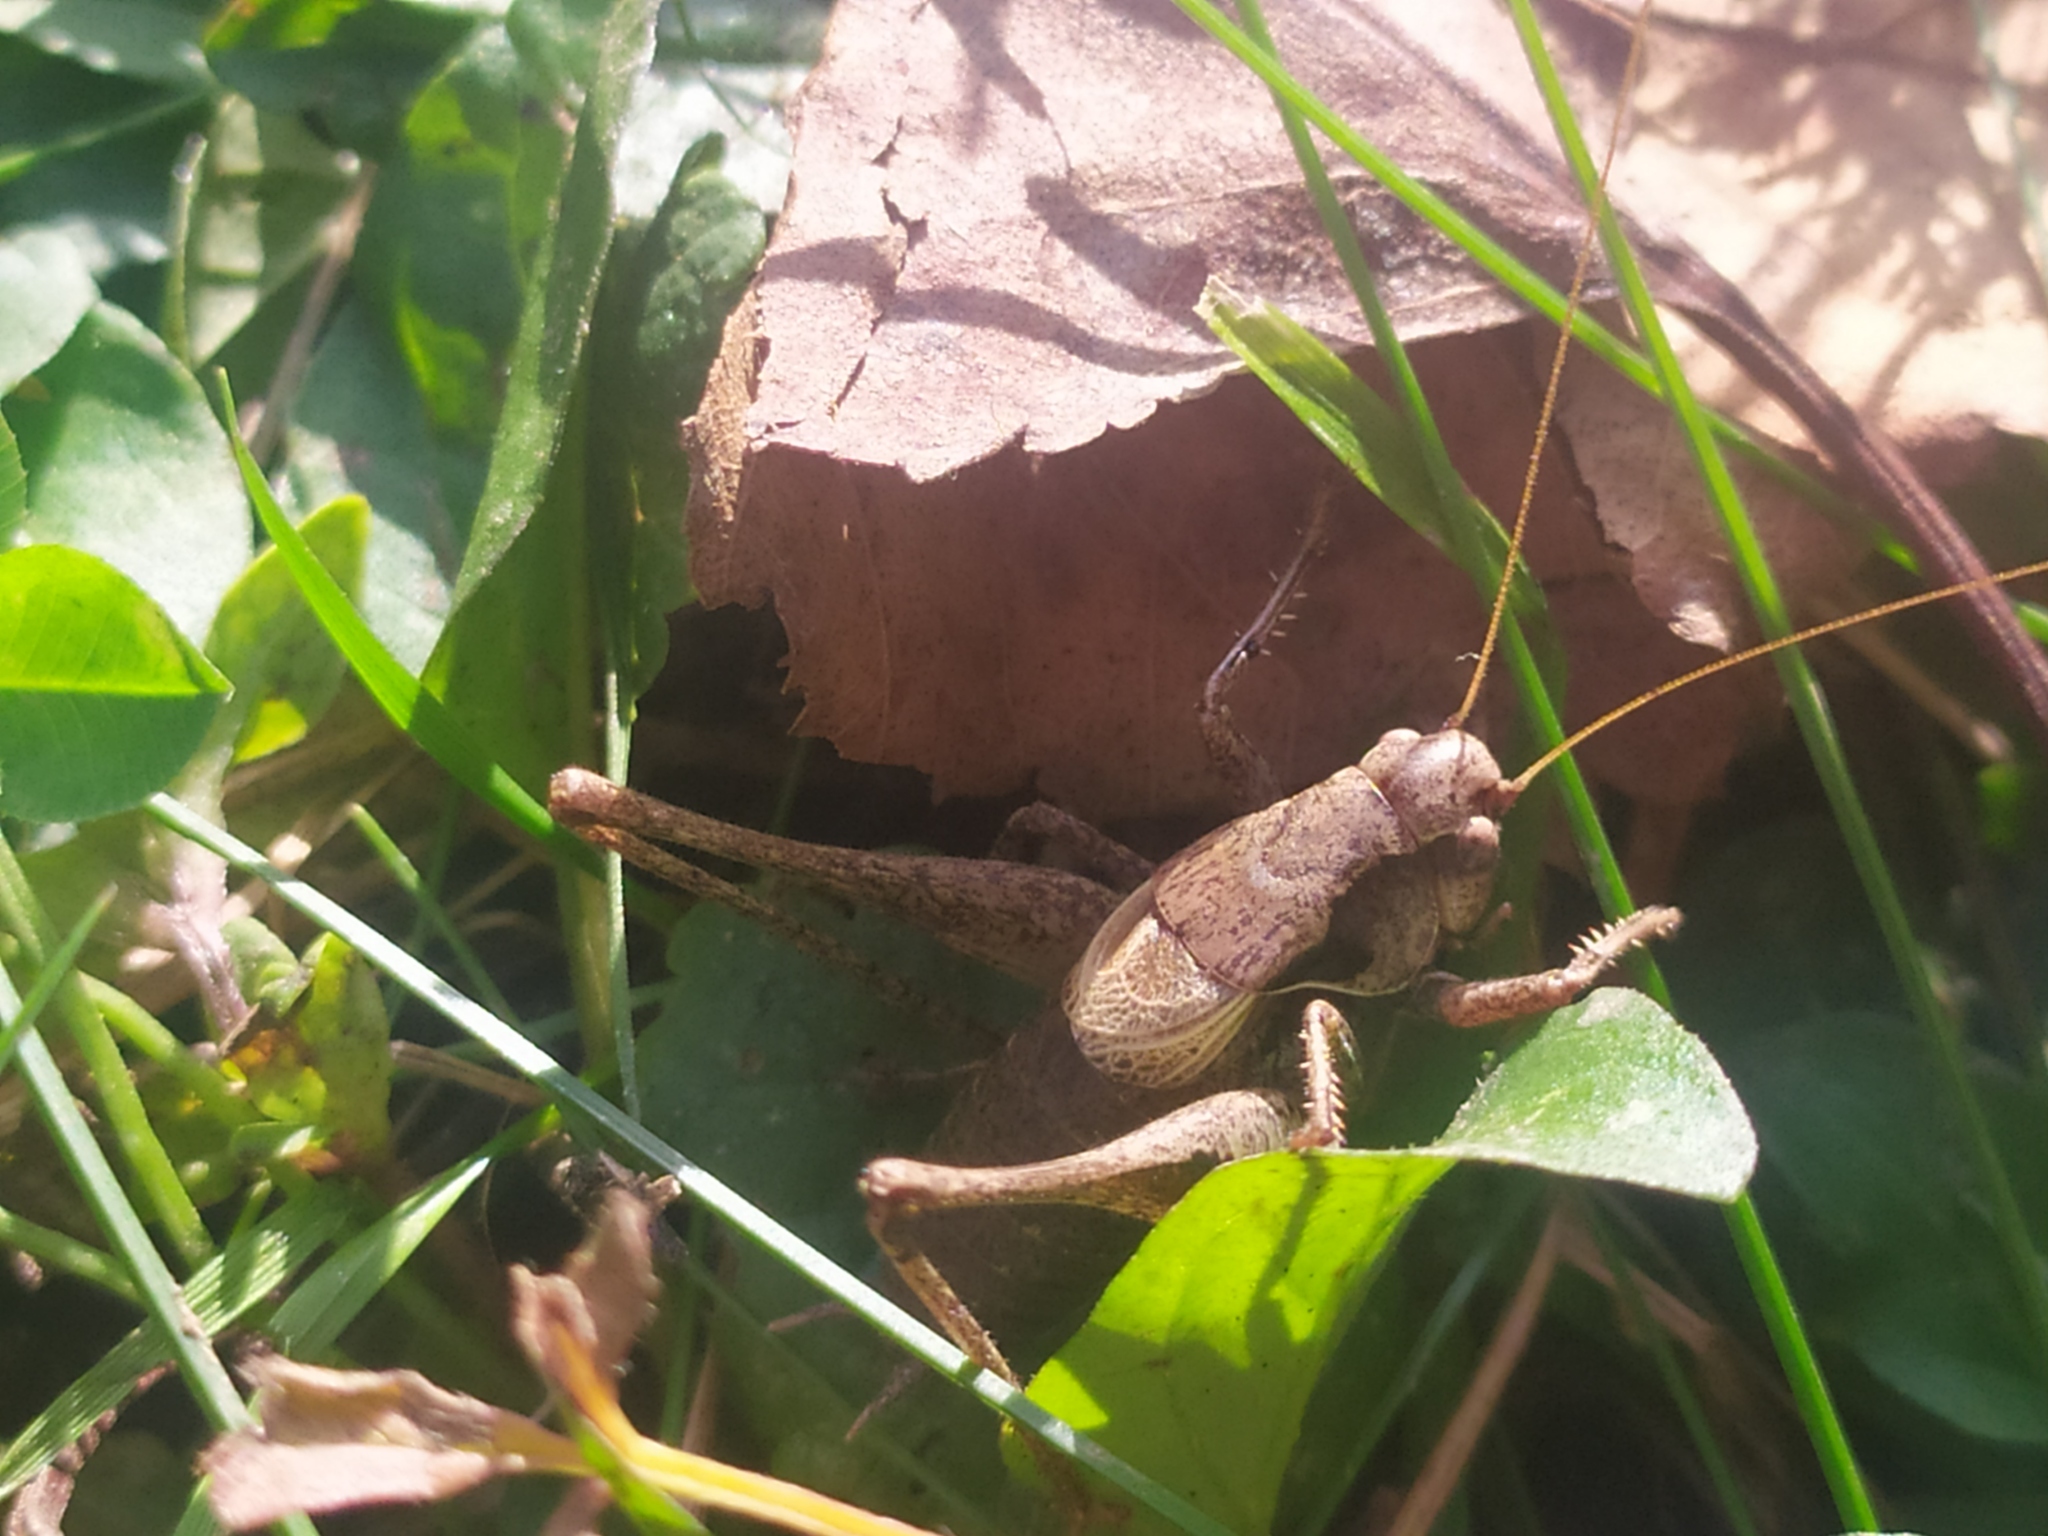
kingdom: Animalia
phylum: Arthropoda
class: Insecta
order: Orthoptera
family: Tettigoniidae
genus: Pholidoptera
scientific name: Pholidoptera griseoaptera
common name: Dark bush-cricket
